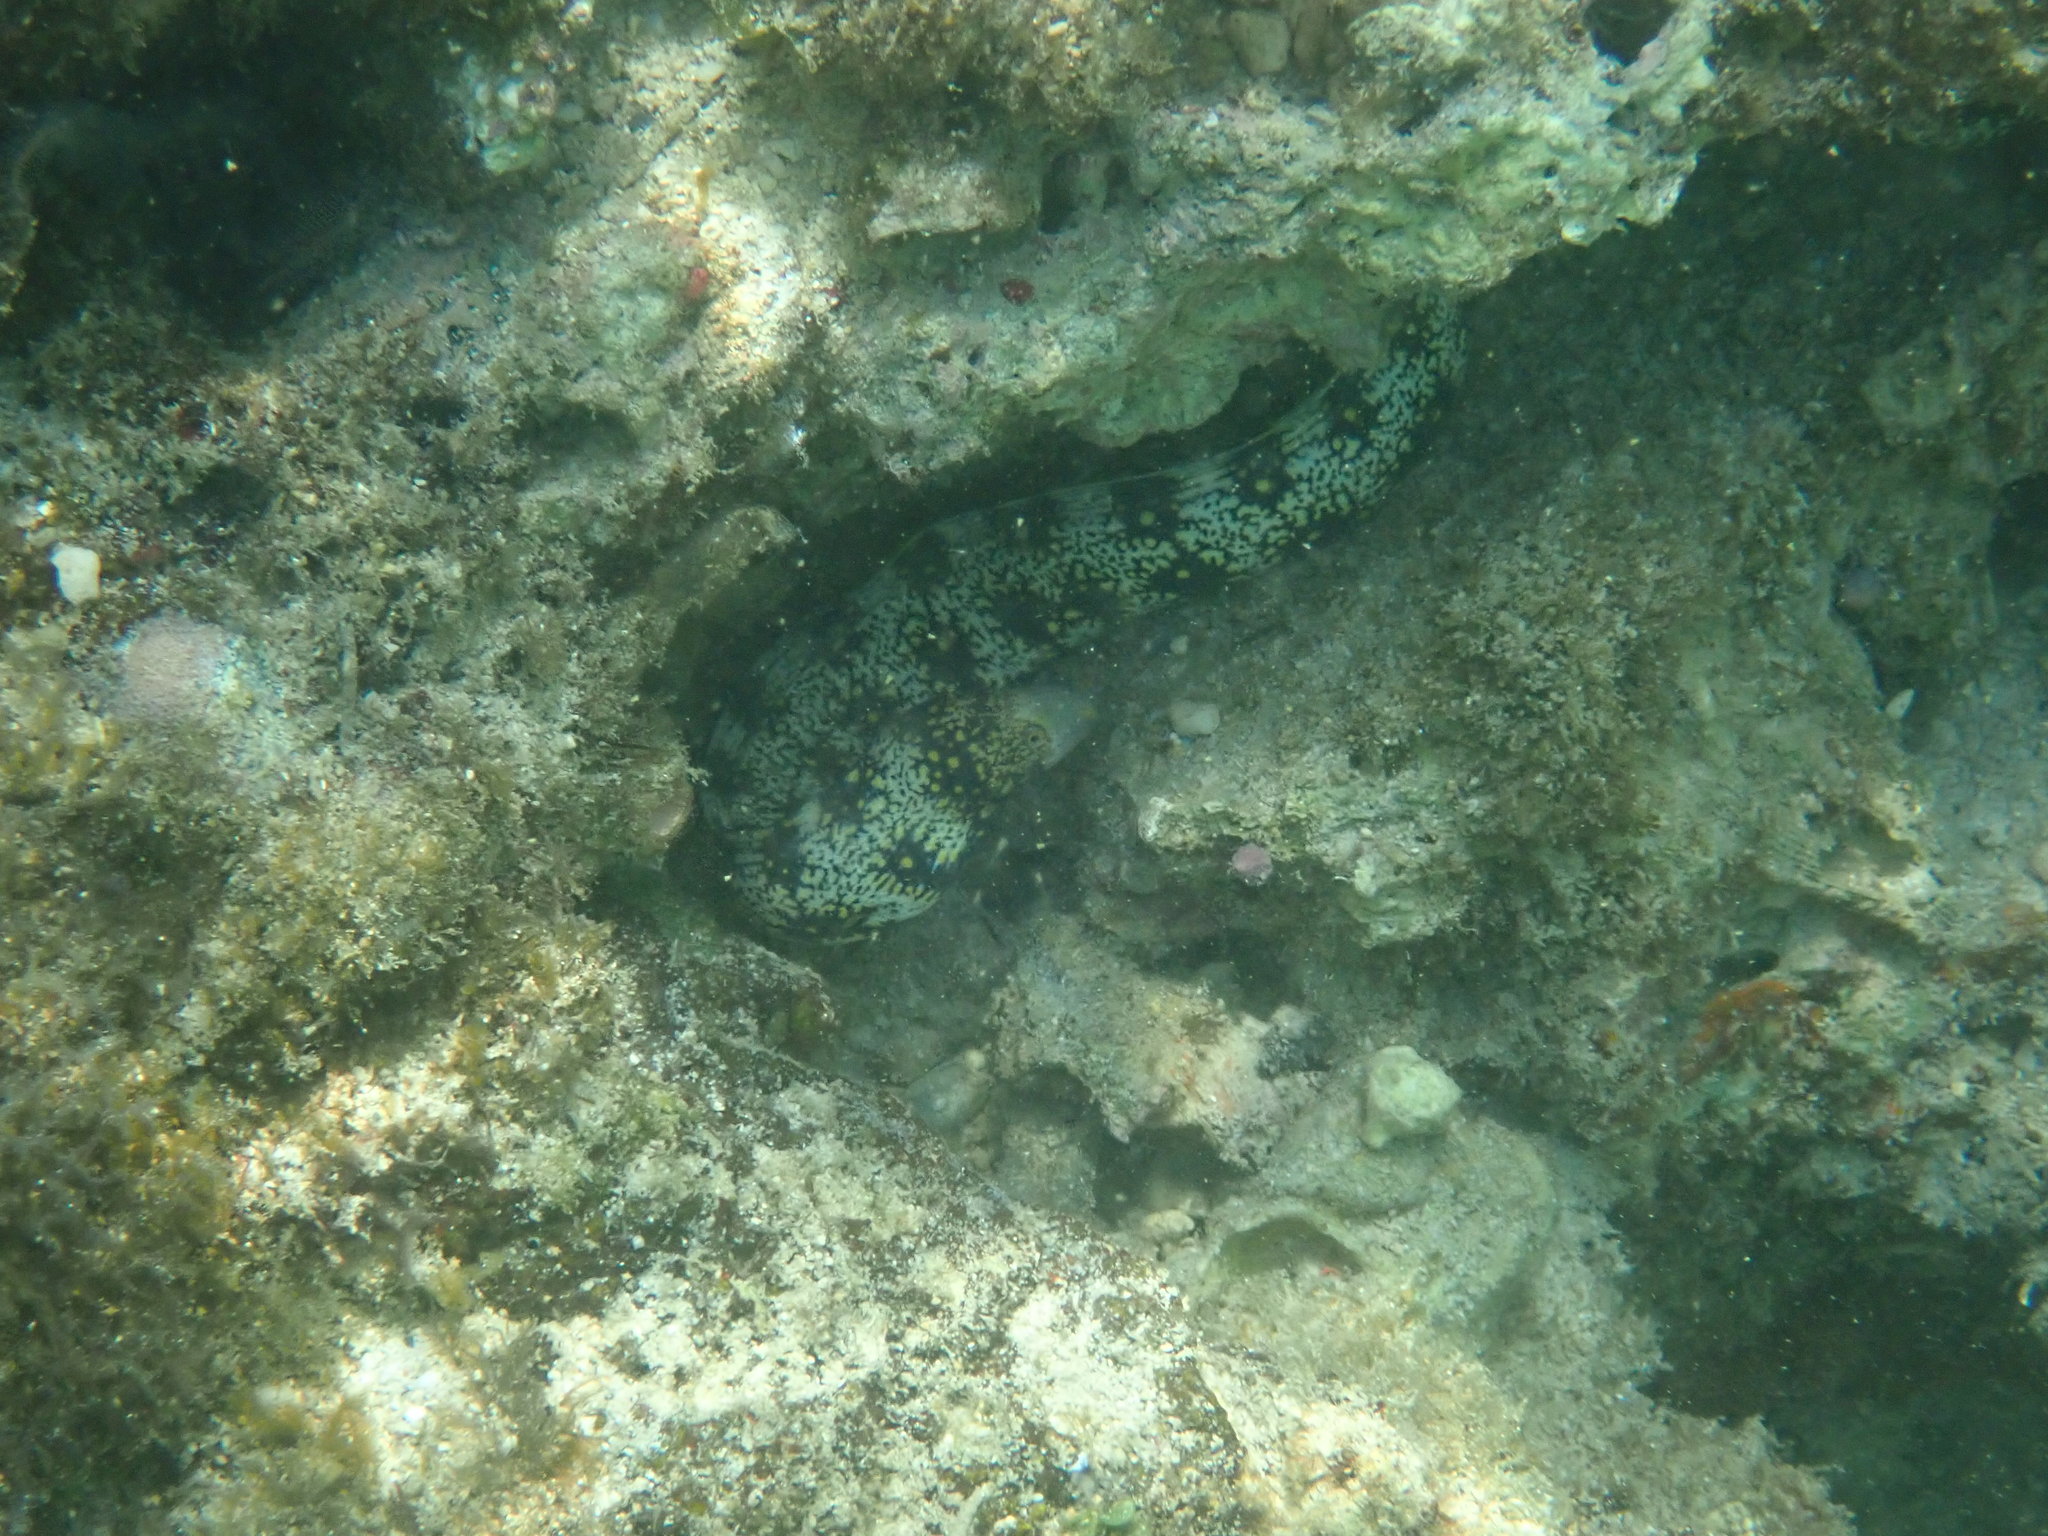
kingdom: Animalia
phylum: Chordata
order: Anguilliformes
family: Muraenidae
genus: Echidna
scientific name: Echidna nebulosa
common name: Snowflake moray
